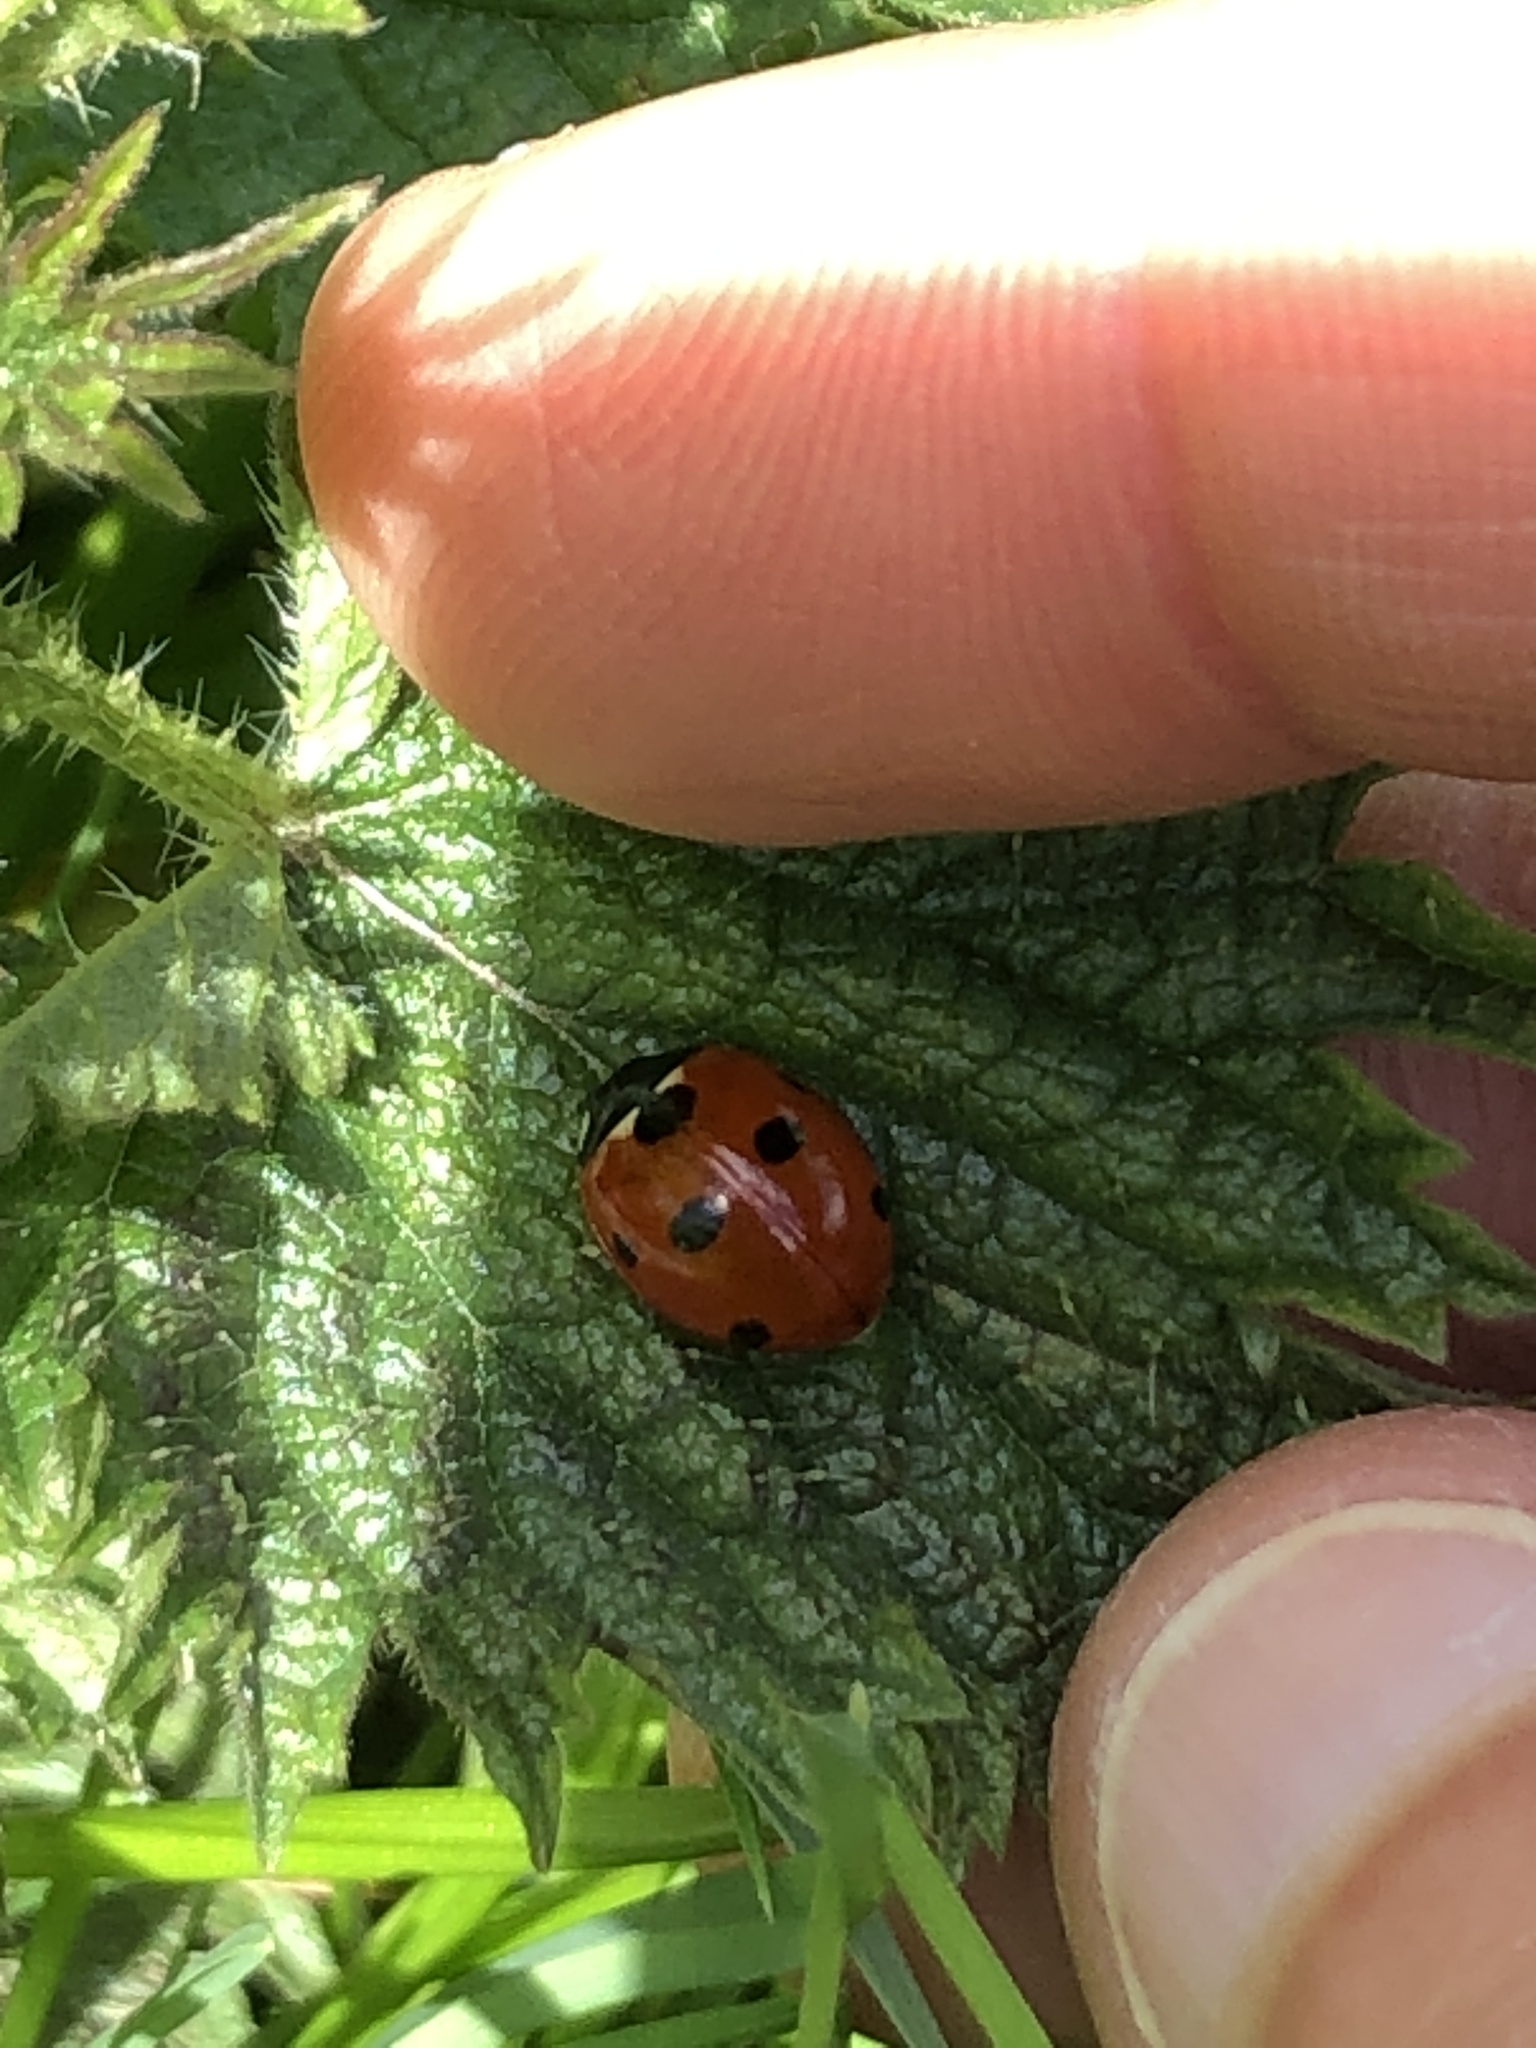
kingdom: Animalia
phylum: Arthropoda
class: Insecta
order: Coleoptera
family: Coccinellidae
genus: Coccinella
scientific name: Coccinella septempunctata
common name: Sevenspotted lady beetle
